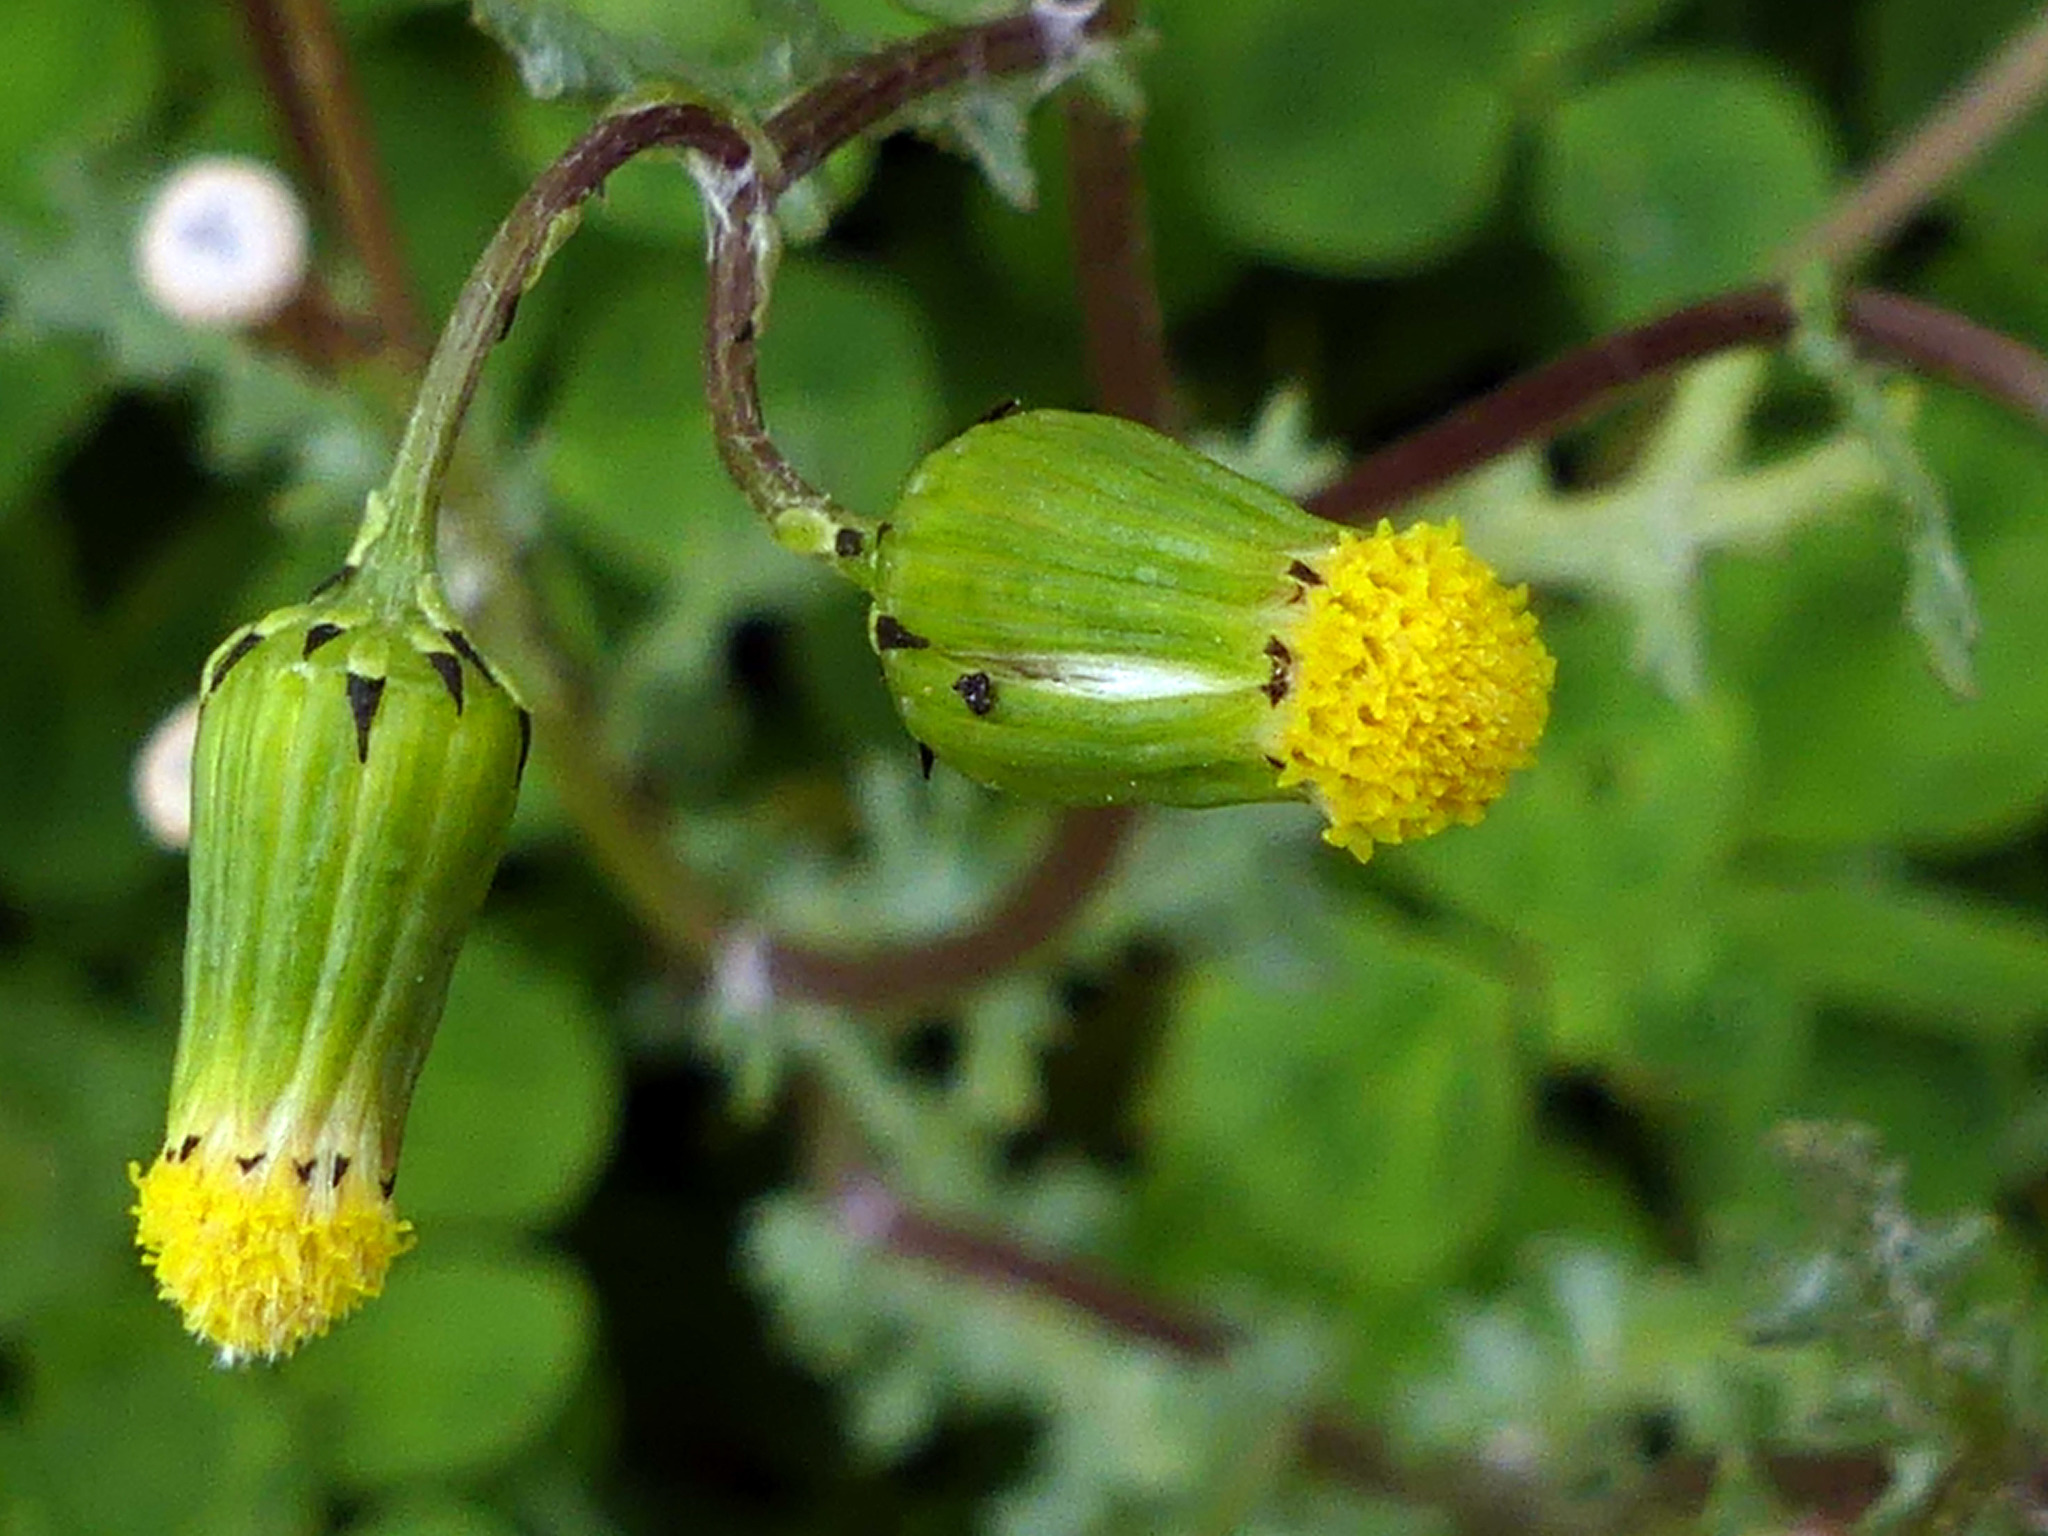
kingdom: Plantae
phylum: Tracheophyta
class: Magnoliopsida
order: Asterales
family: Asteraceae
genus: Senecio
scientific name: Senecio vulgaris
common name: Old-man-in-the-spring
